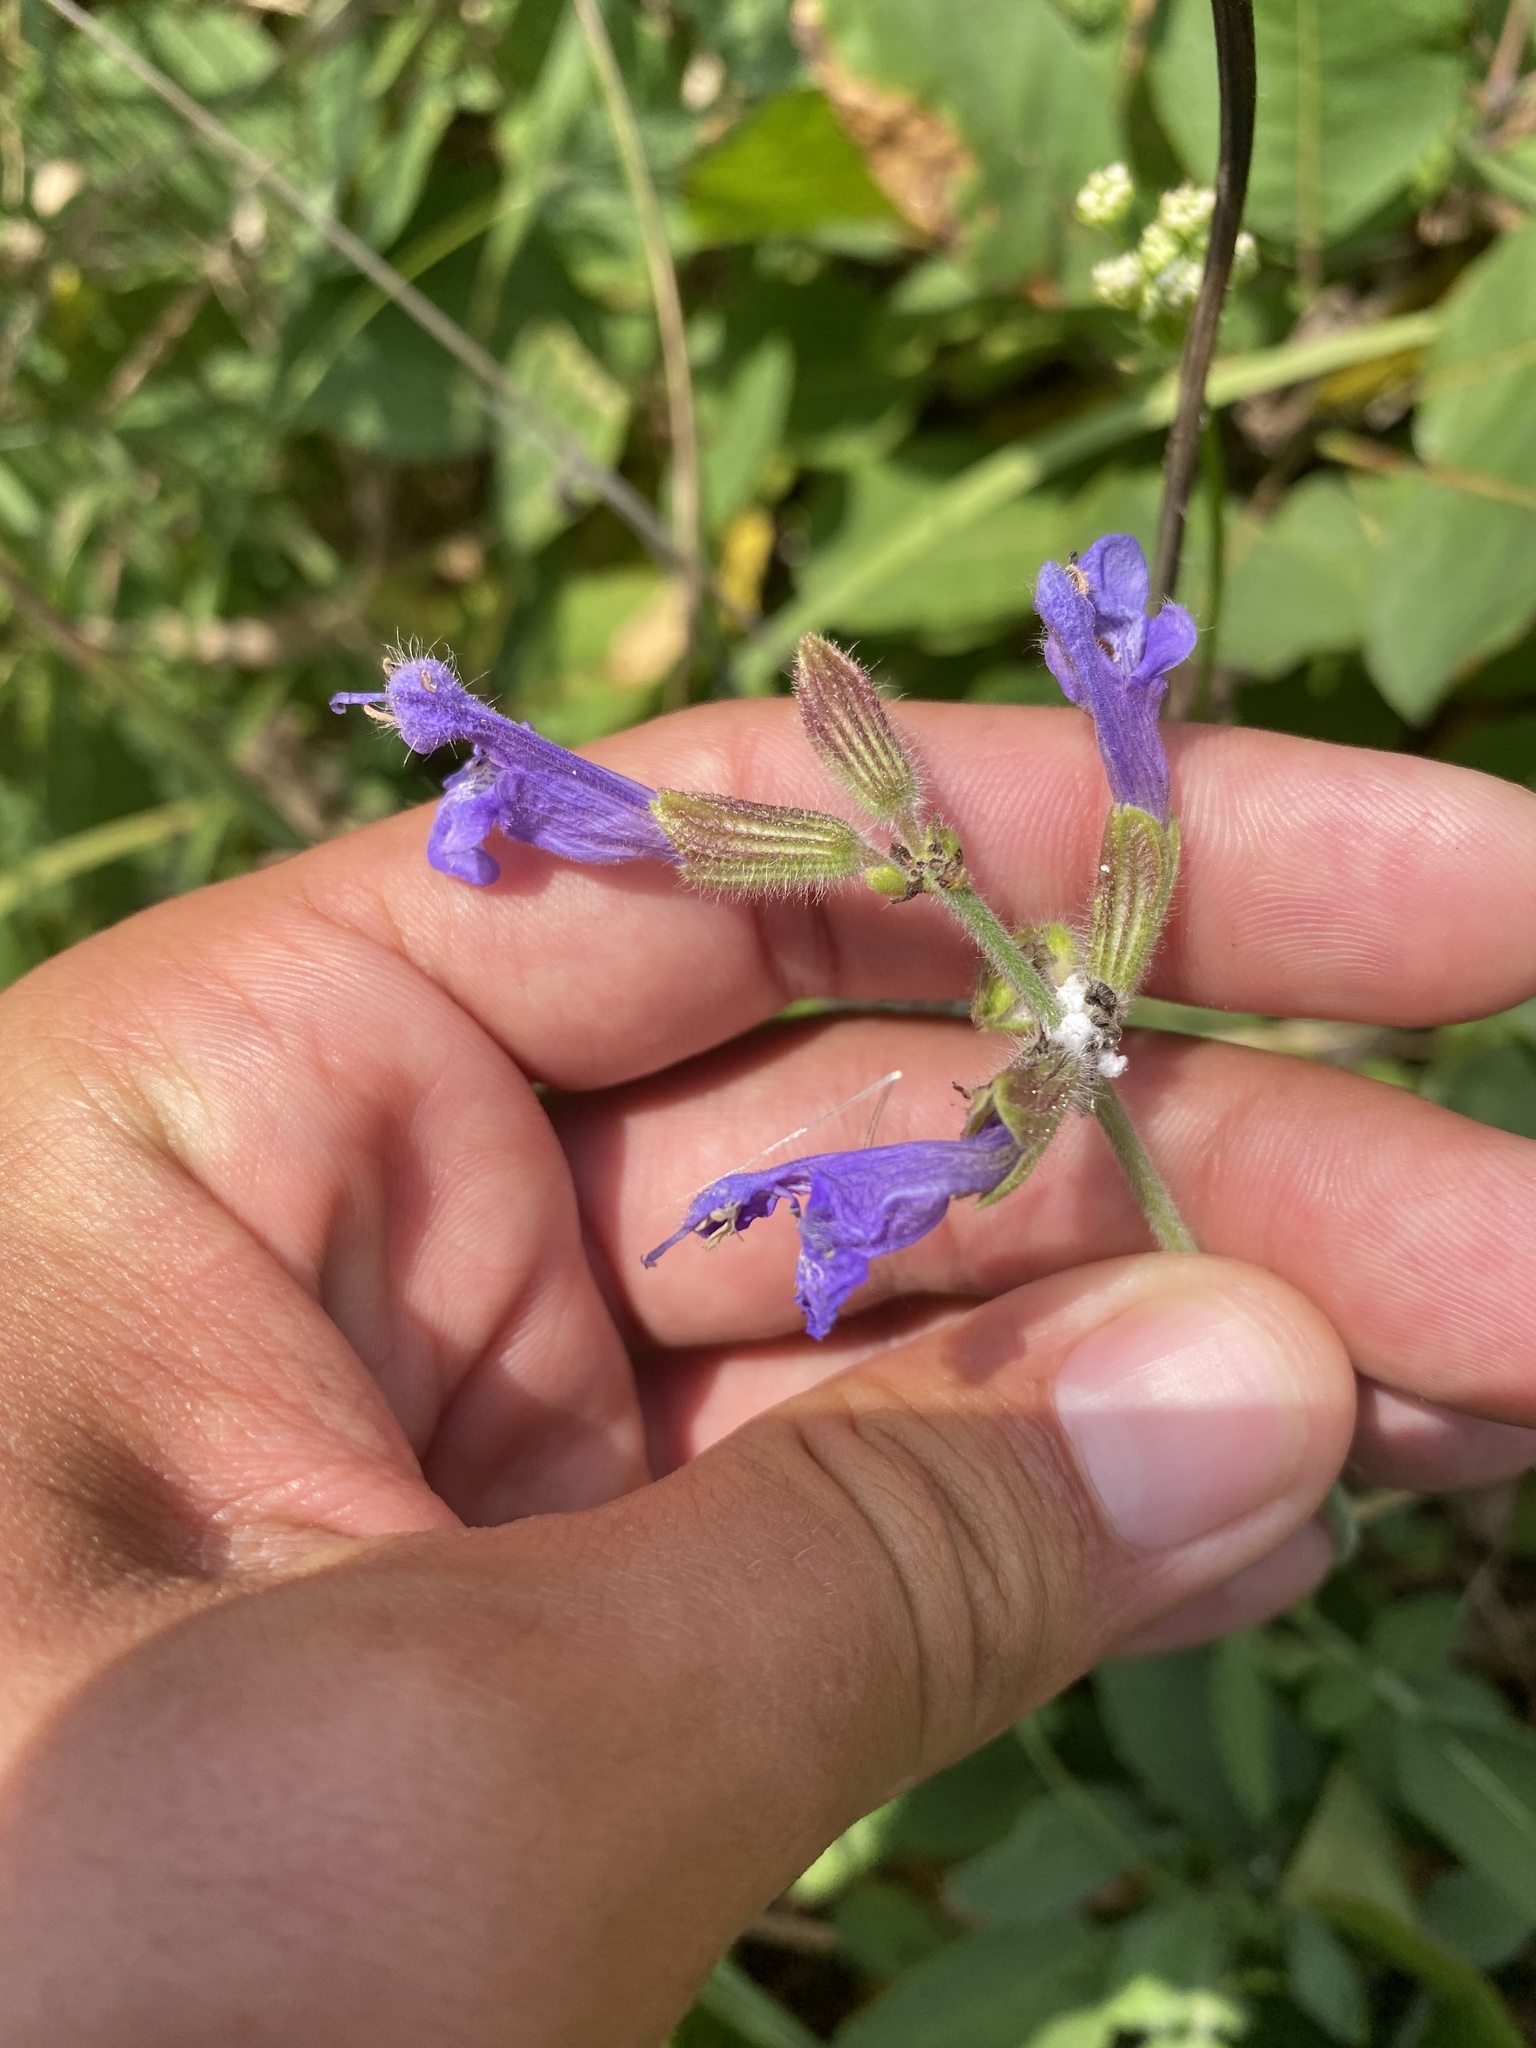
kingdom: Plantae
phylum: Tracheophyta
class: Magnoliopsida
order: Lamiales
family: Lamiaceae
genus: Salvia
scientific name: Salvia ringens
